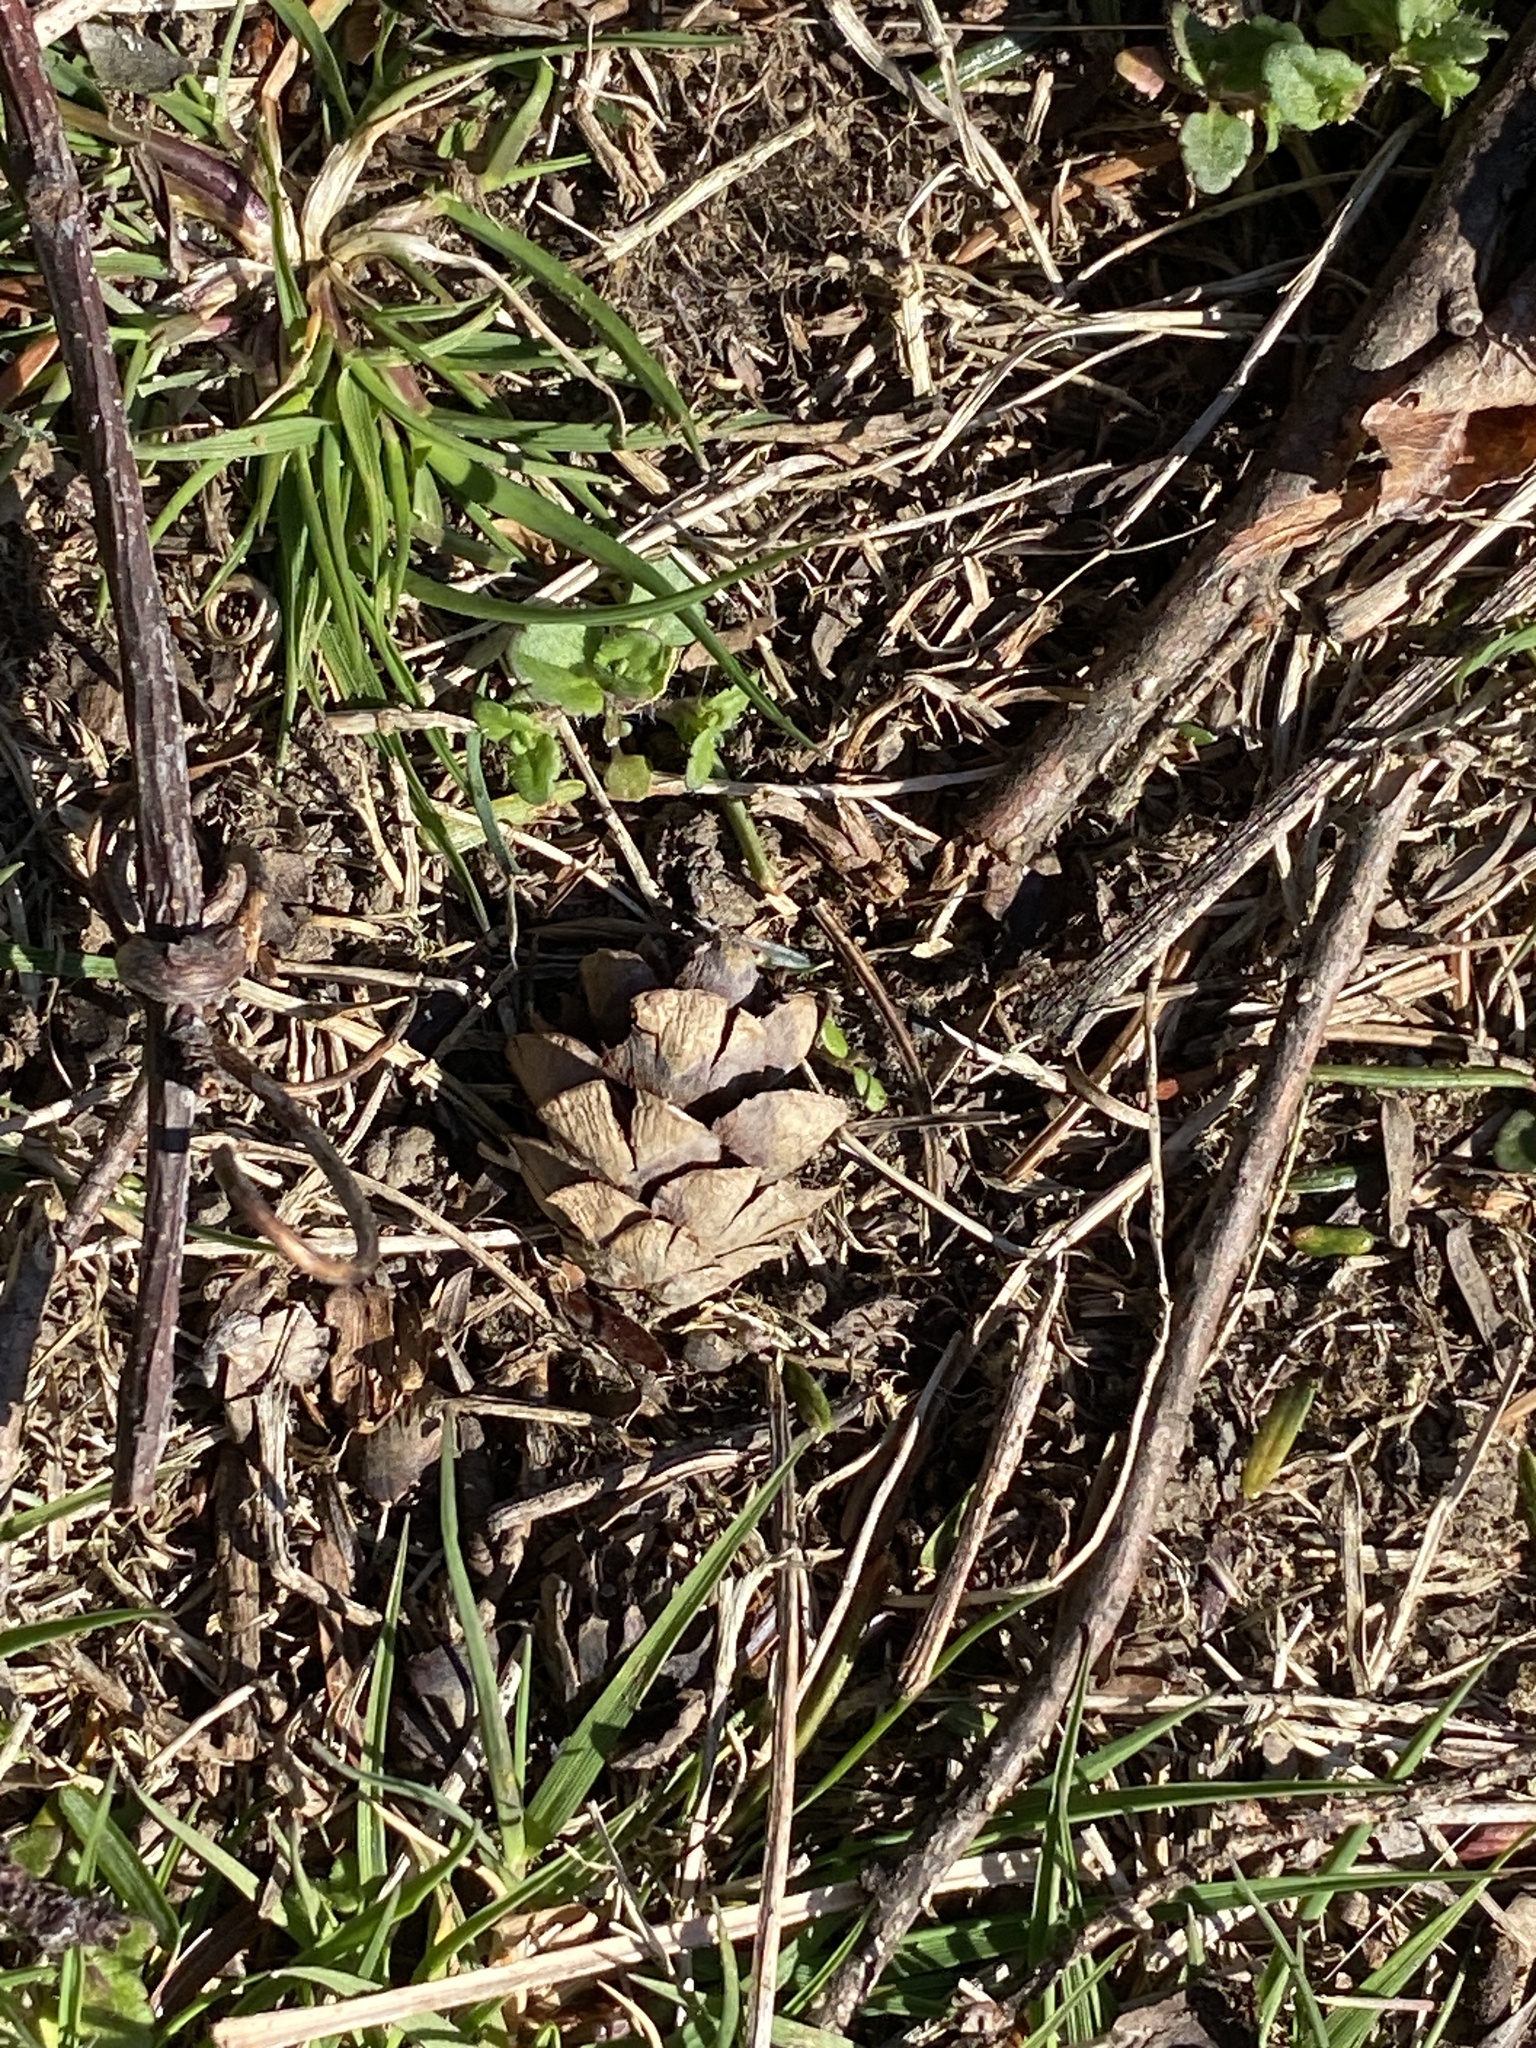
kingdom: Plantae
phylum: Tracheophyta
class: Pinopsida
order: Pinales
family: Pinaceae
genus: Tsuga
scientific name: Tsuga canadensis
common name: Eastern hemlock
